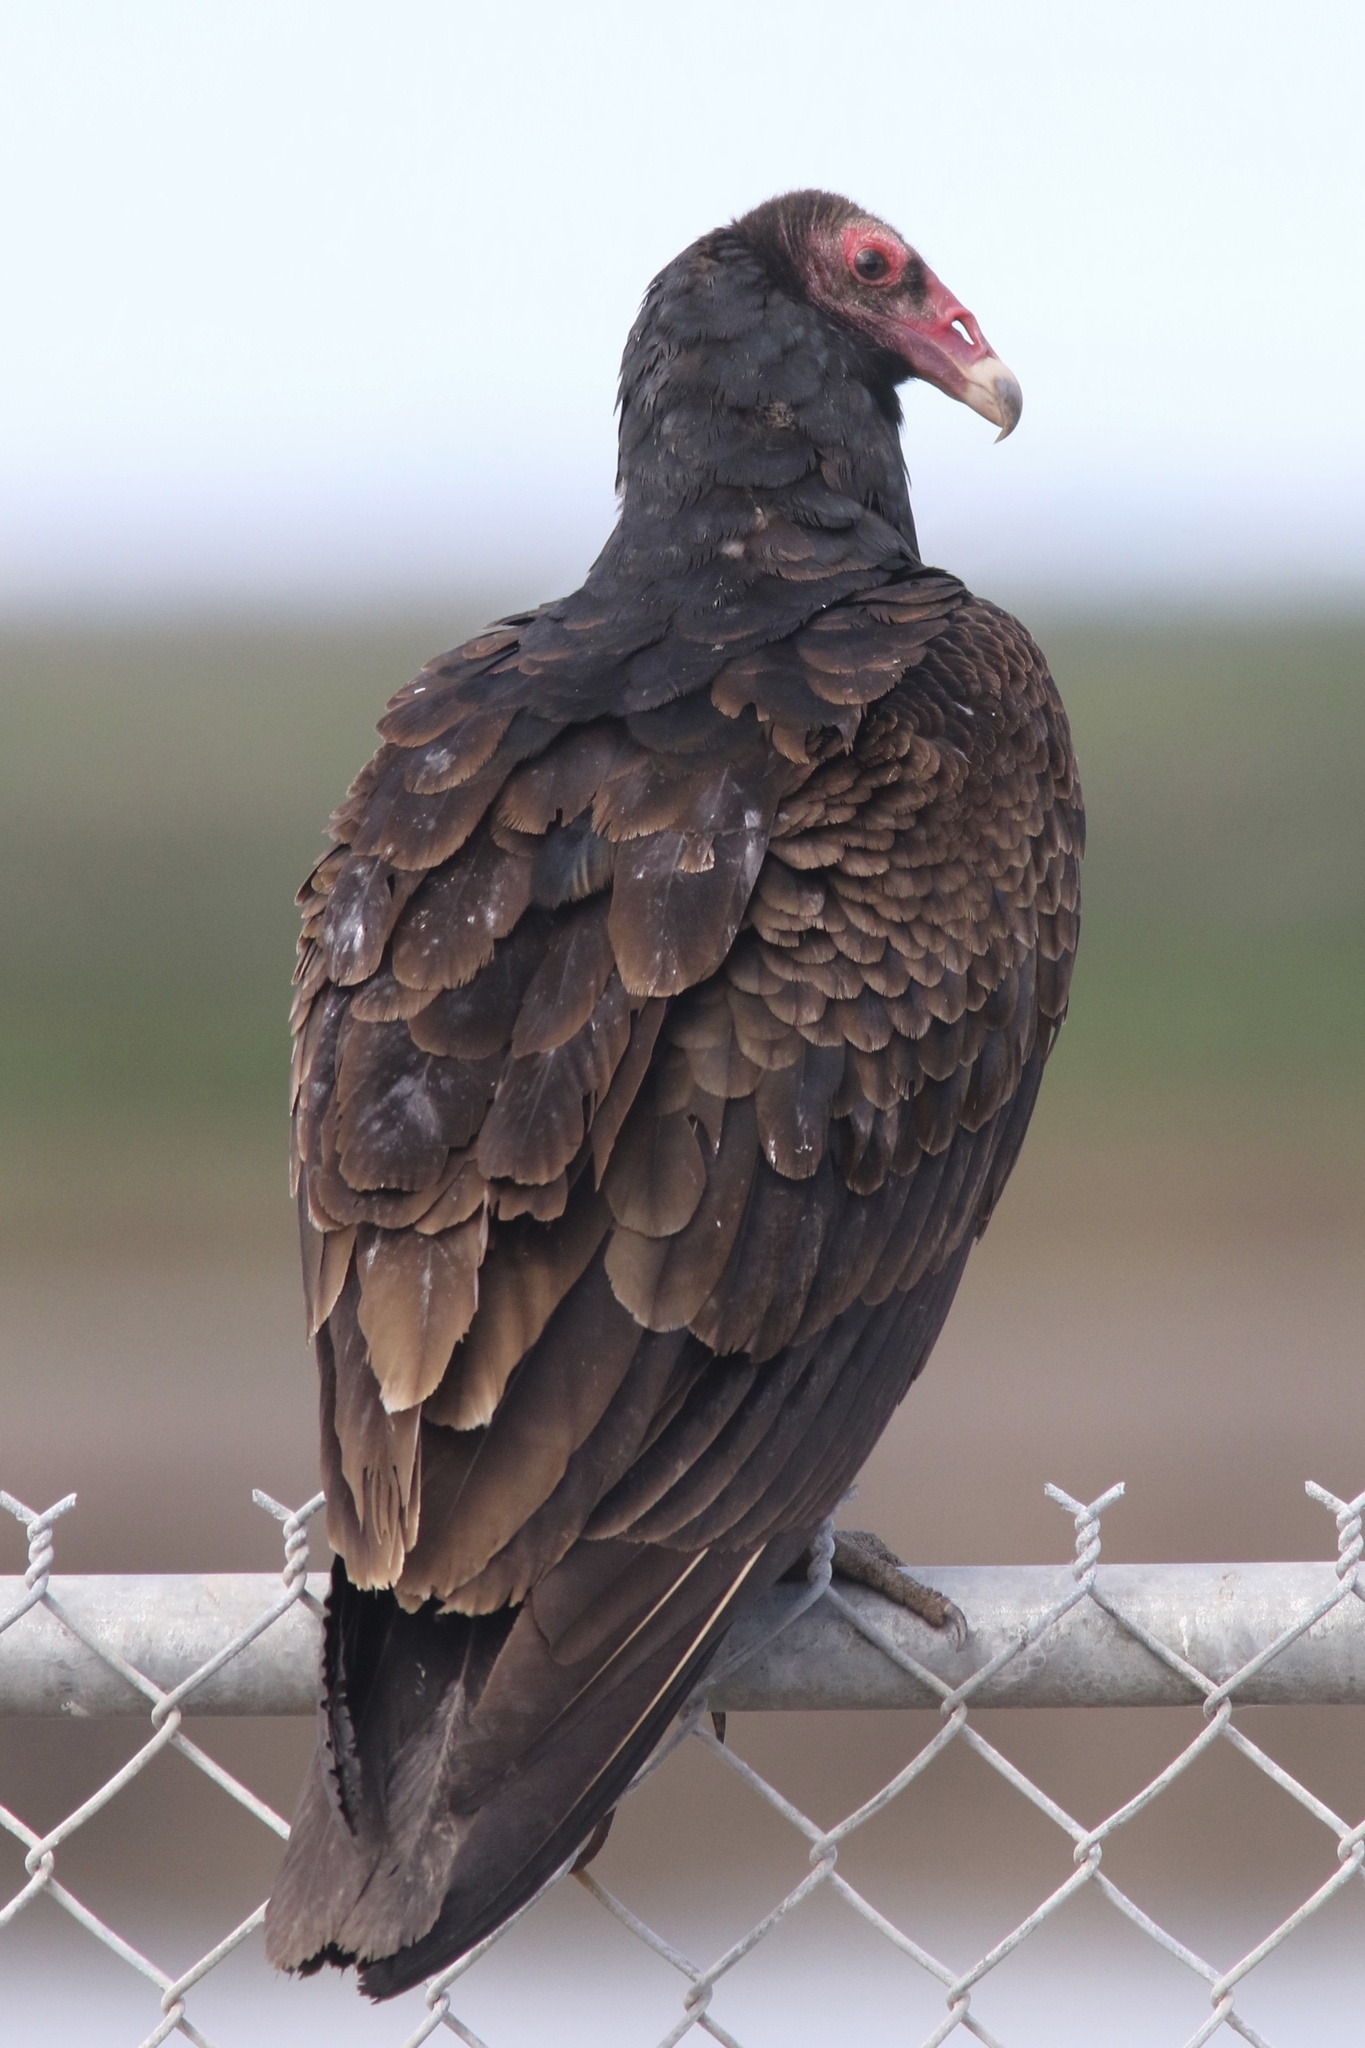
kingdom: Animalia
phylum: Chordata
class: Aves
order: Accipitriformes
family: Cathartidae
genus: Cathartes
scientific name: Cathartes aura
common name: Turkey vulture
